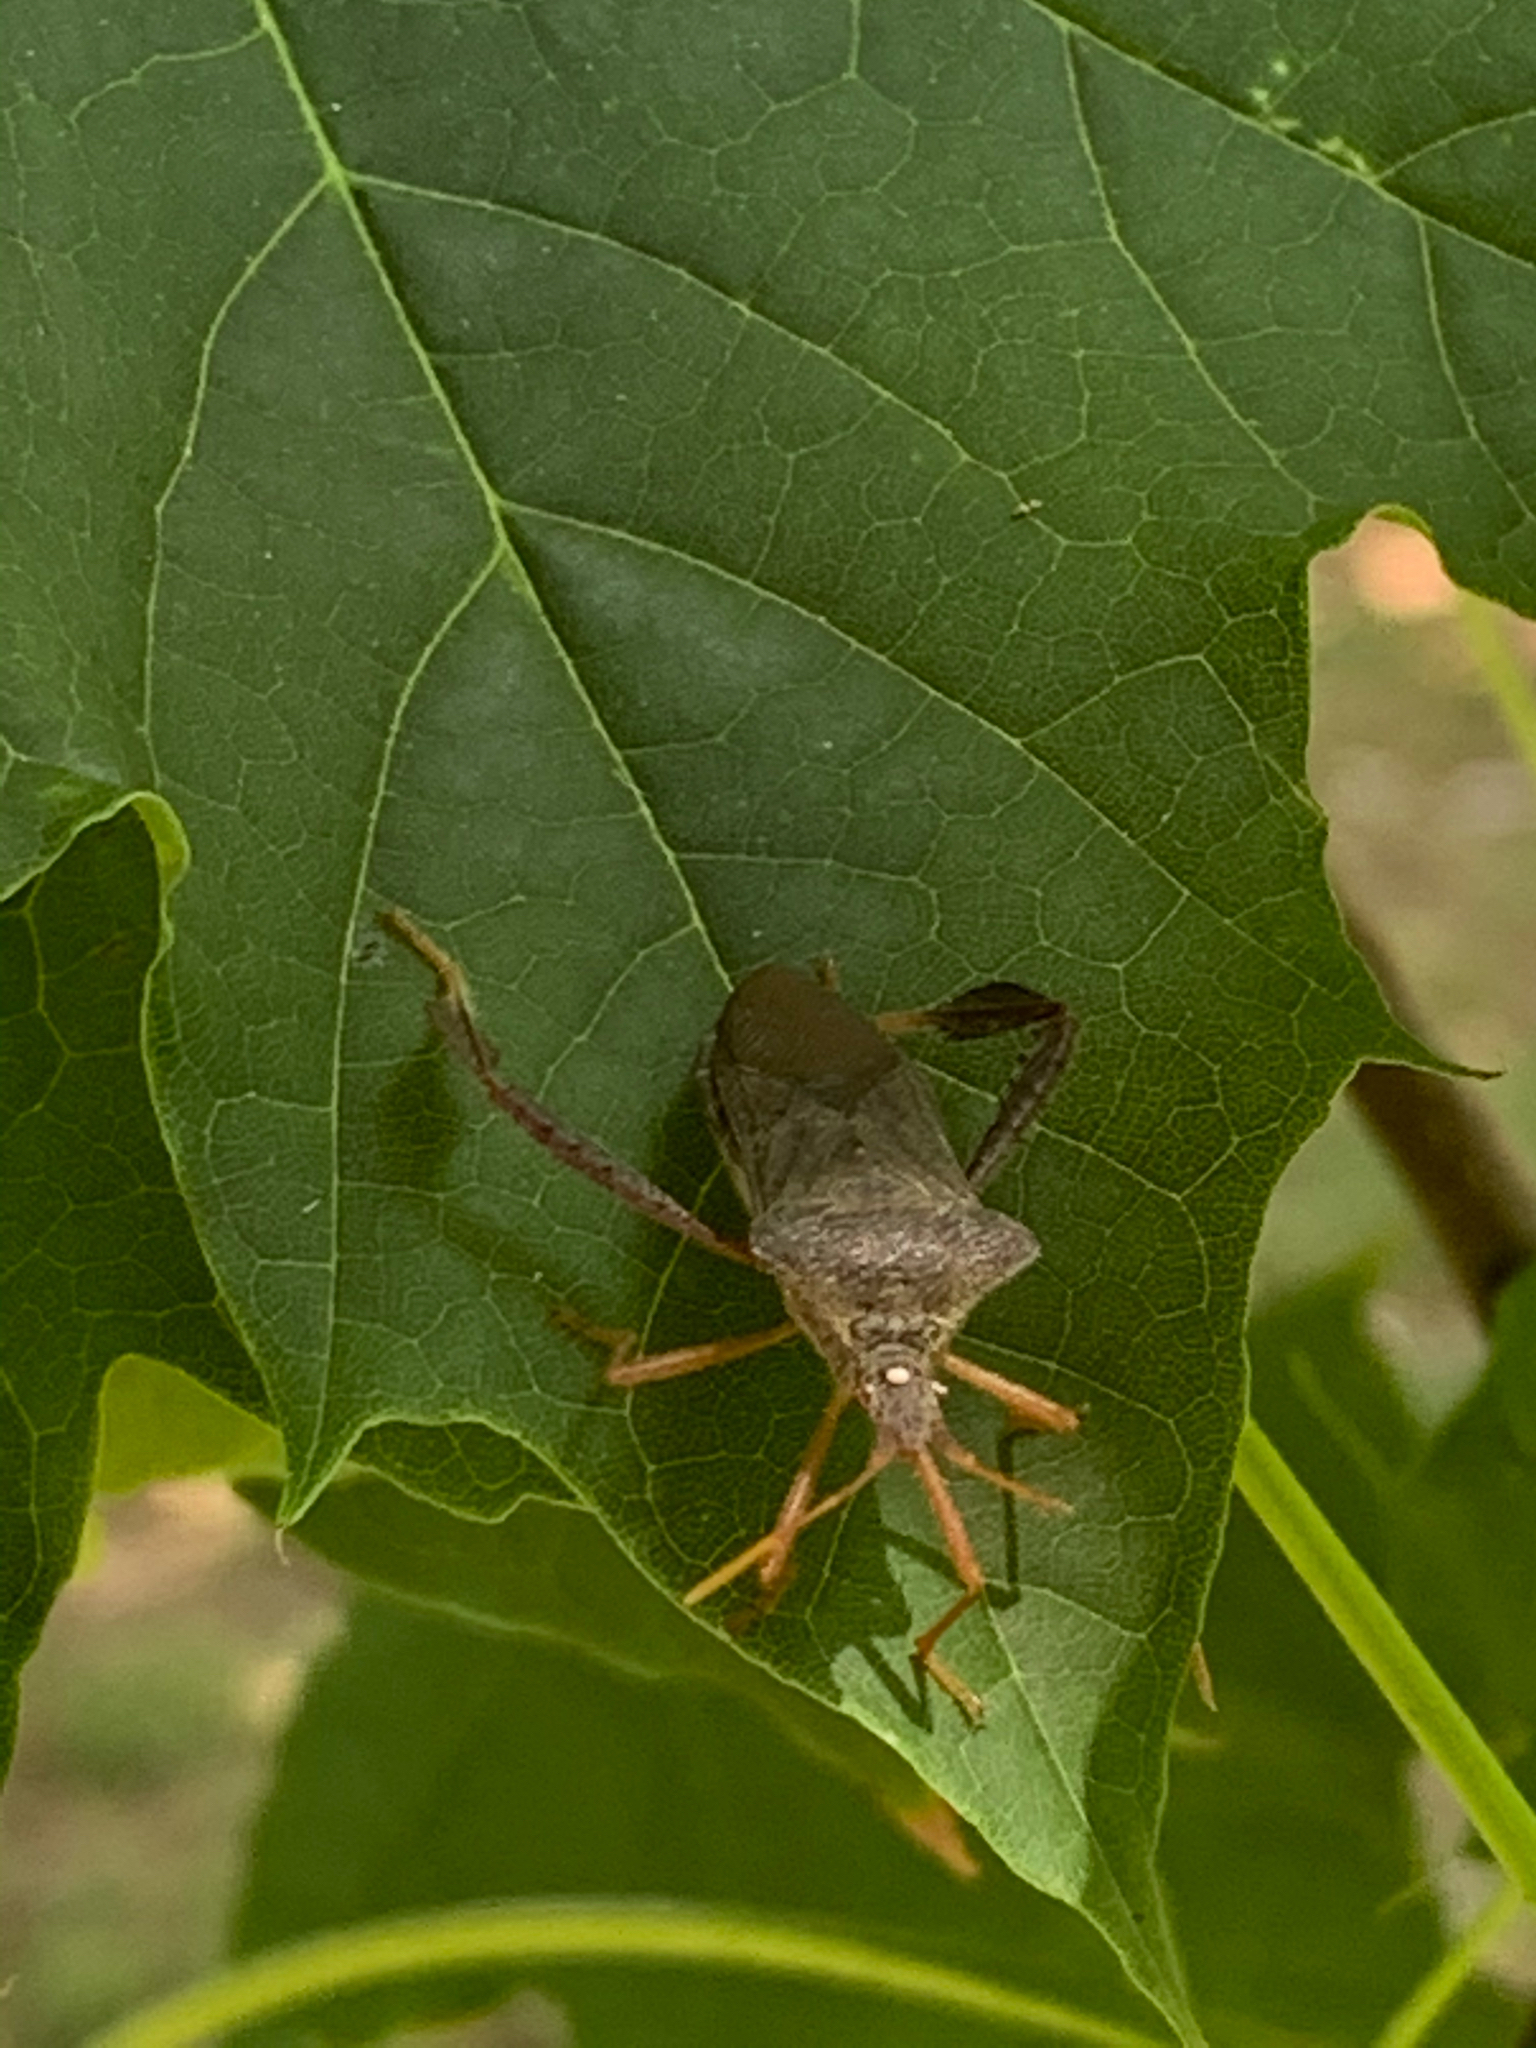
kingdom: Animalia
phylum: Arthropoda
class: Insecta
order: Hemiptera
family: Coreidae
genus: Leptoglossus
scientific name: Leptoglossus fulvicornis
